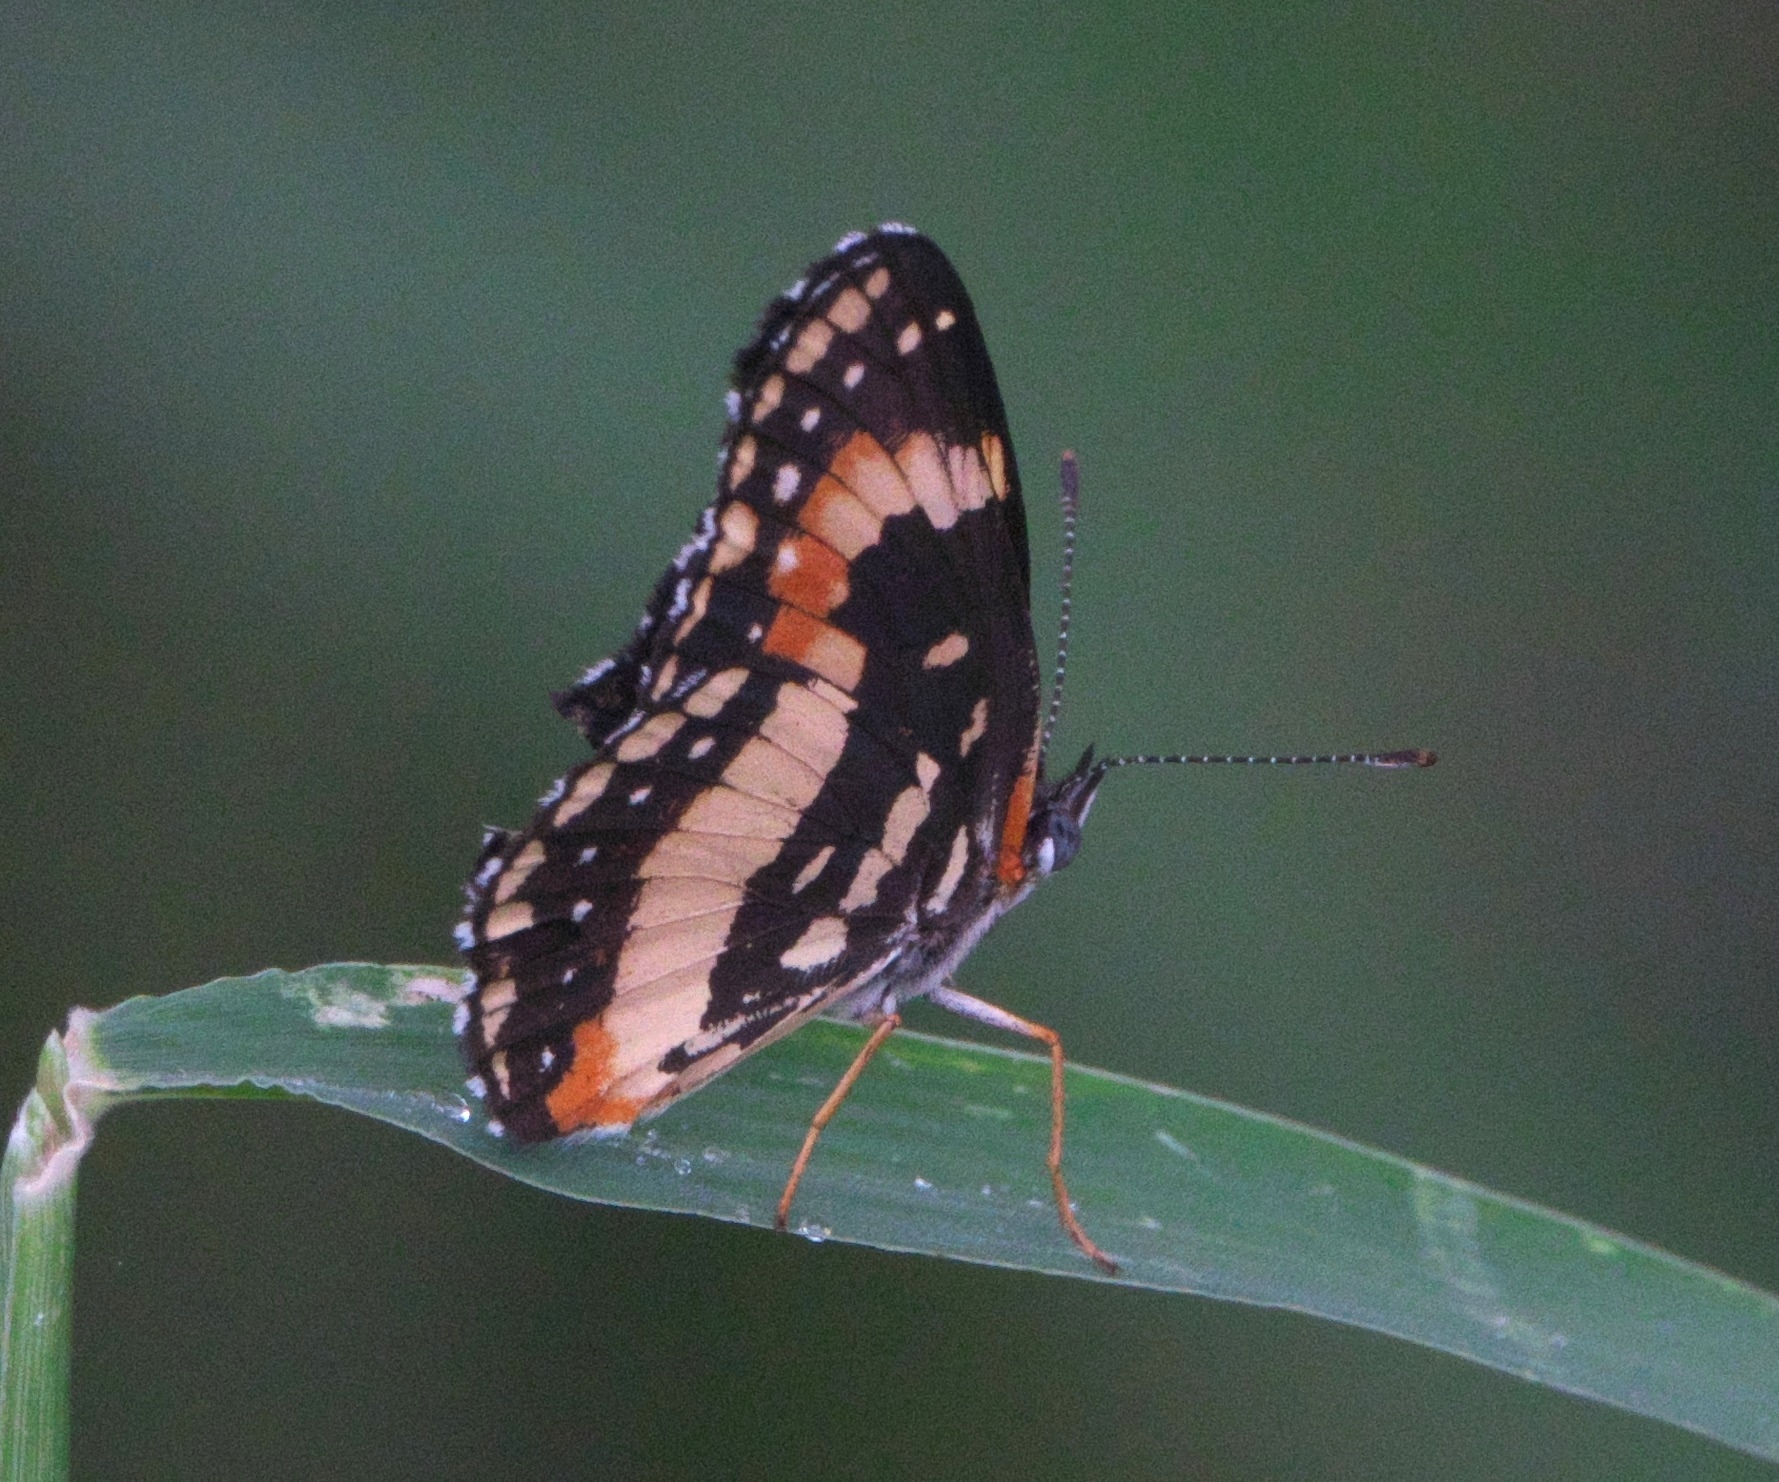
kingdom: Animalia
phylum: Arthropoda
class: Insecta
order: Lepidoptera
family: Nymphalidae
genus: Chlosyne
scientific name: Chlosyne lacinia
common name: Bordered patch
